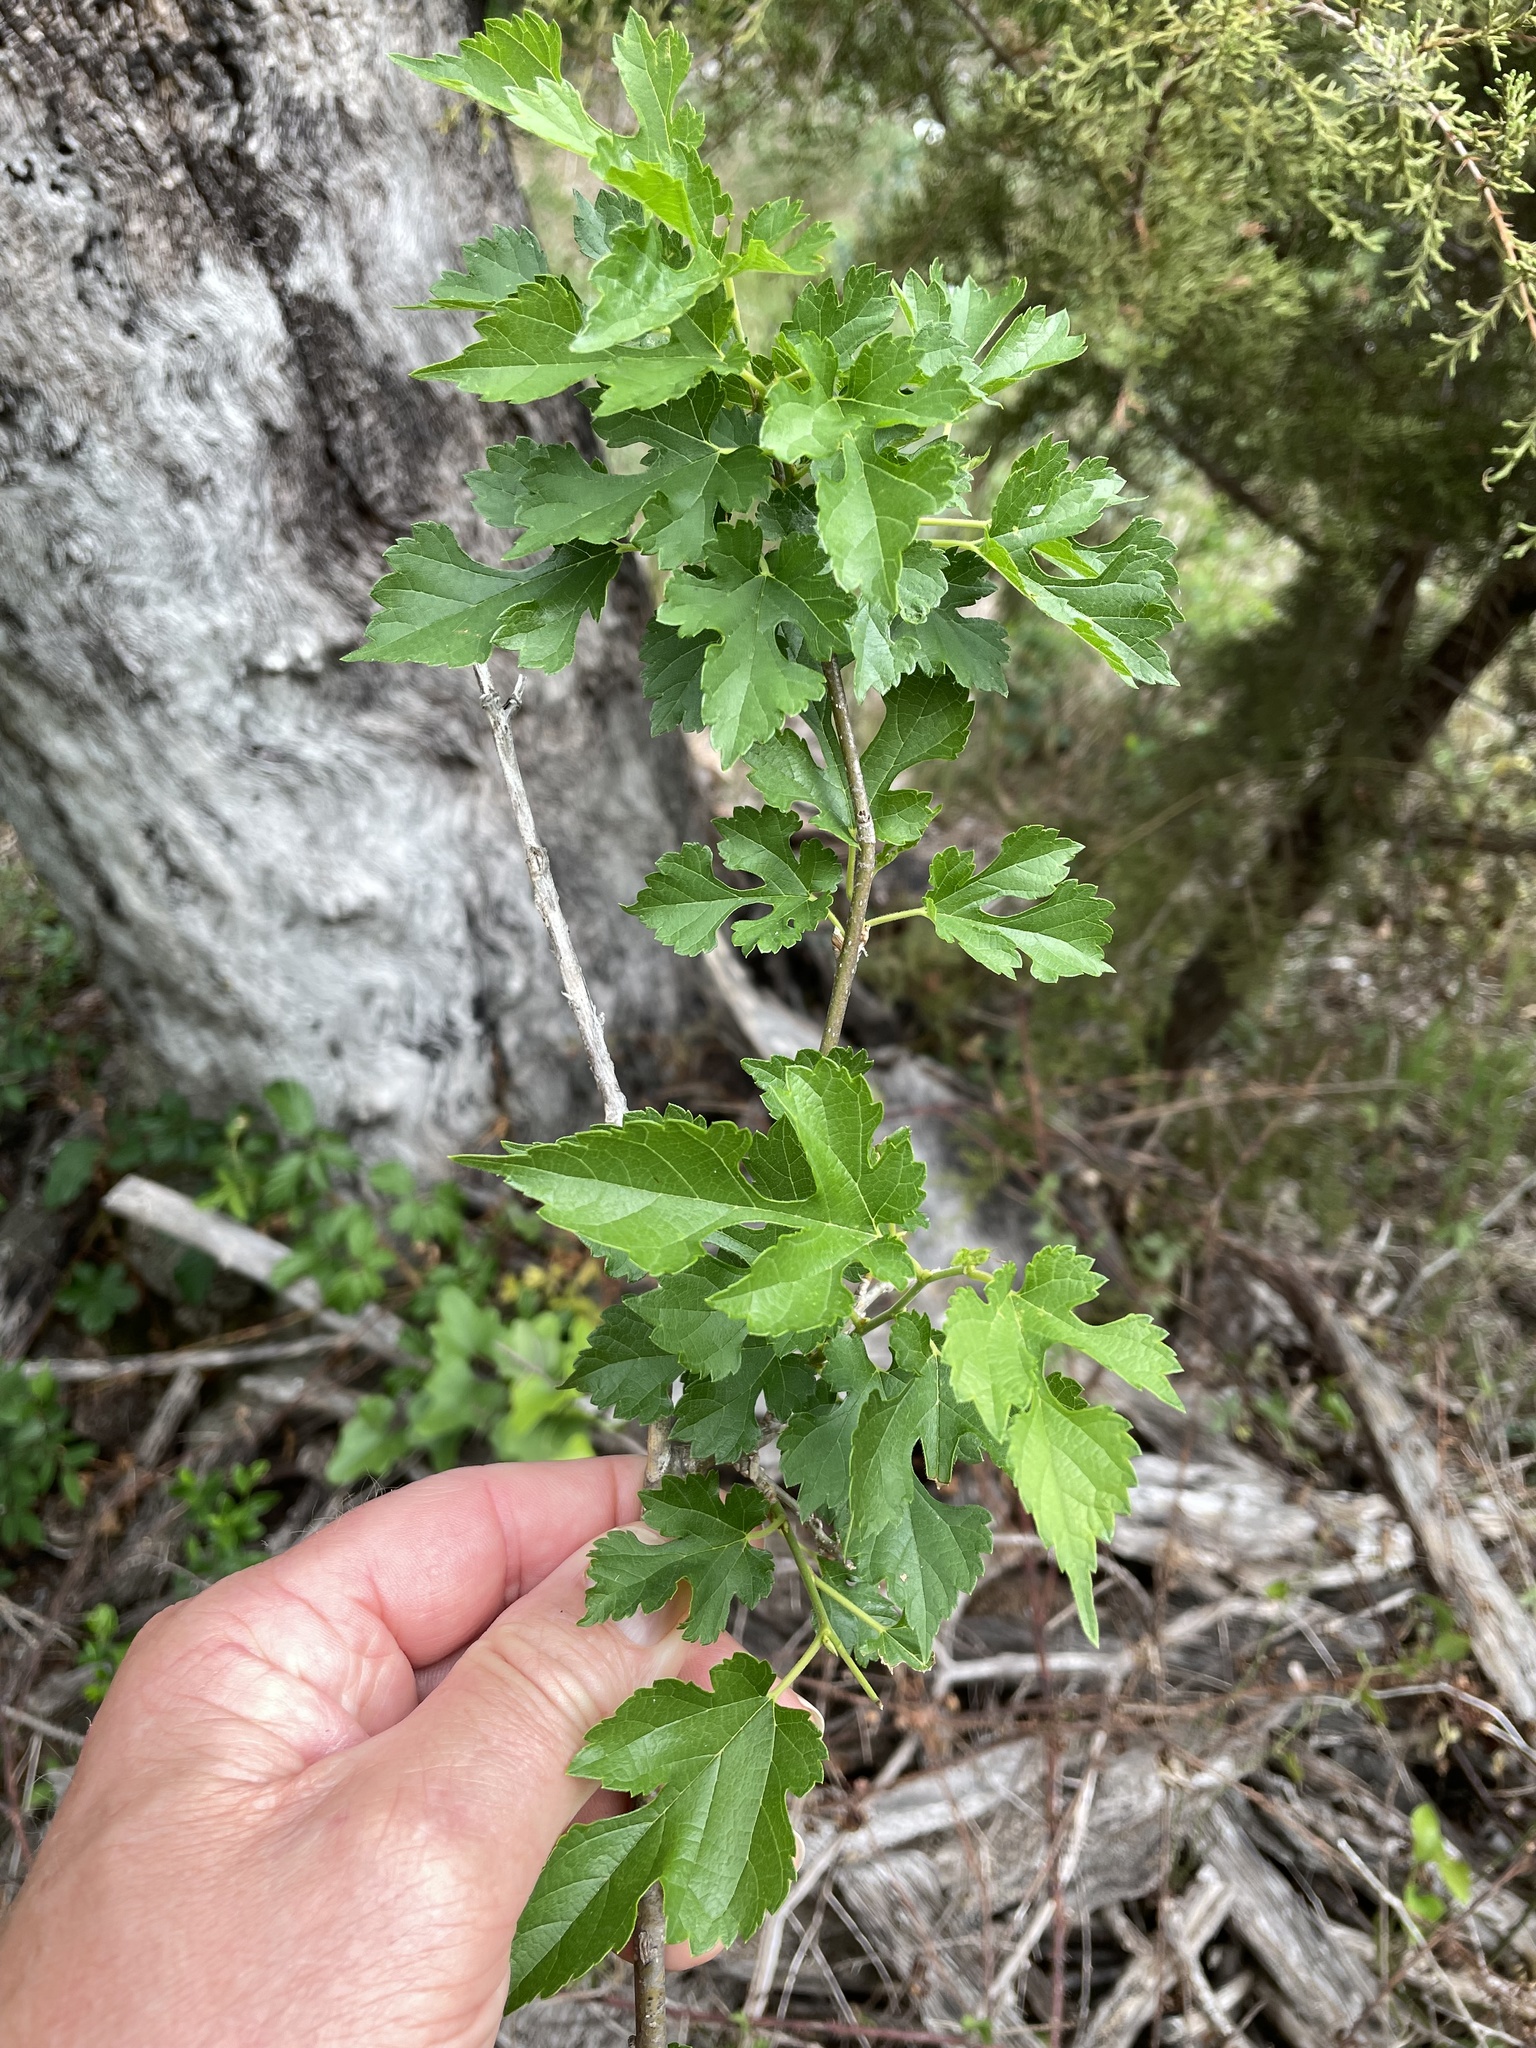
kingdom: Plantae
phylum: Tracheophyta
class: Magnoliopsida
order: Rosales
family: Moraceae
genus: Morus
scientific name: Morus alba
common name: White mulberry
